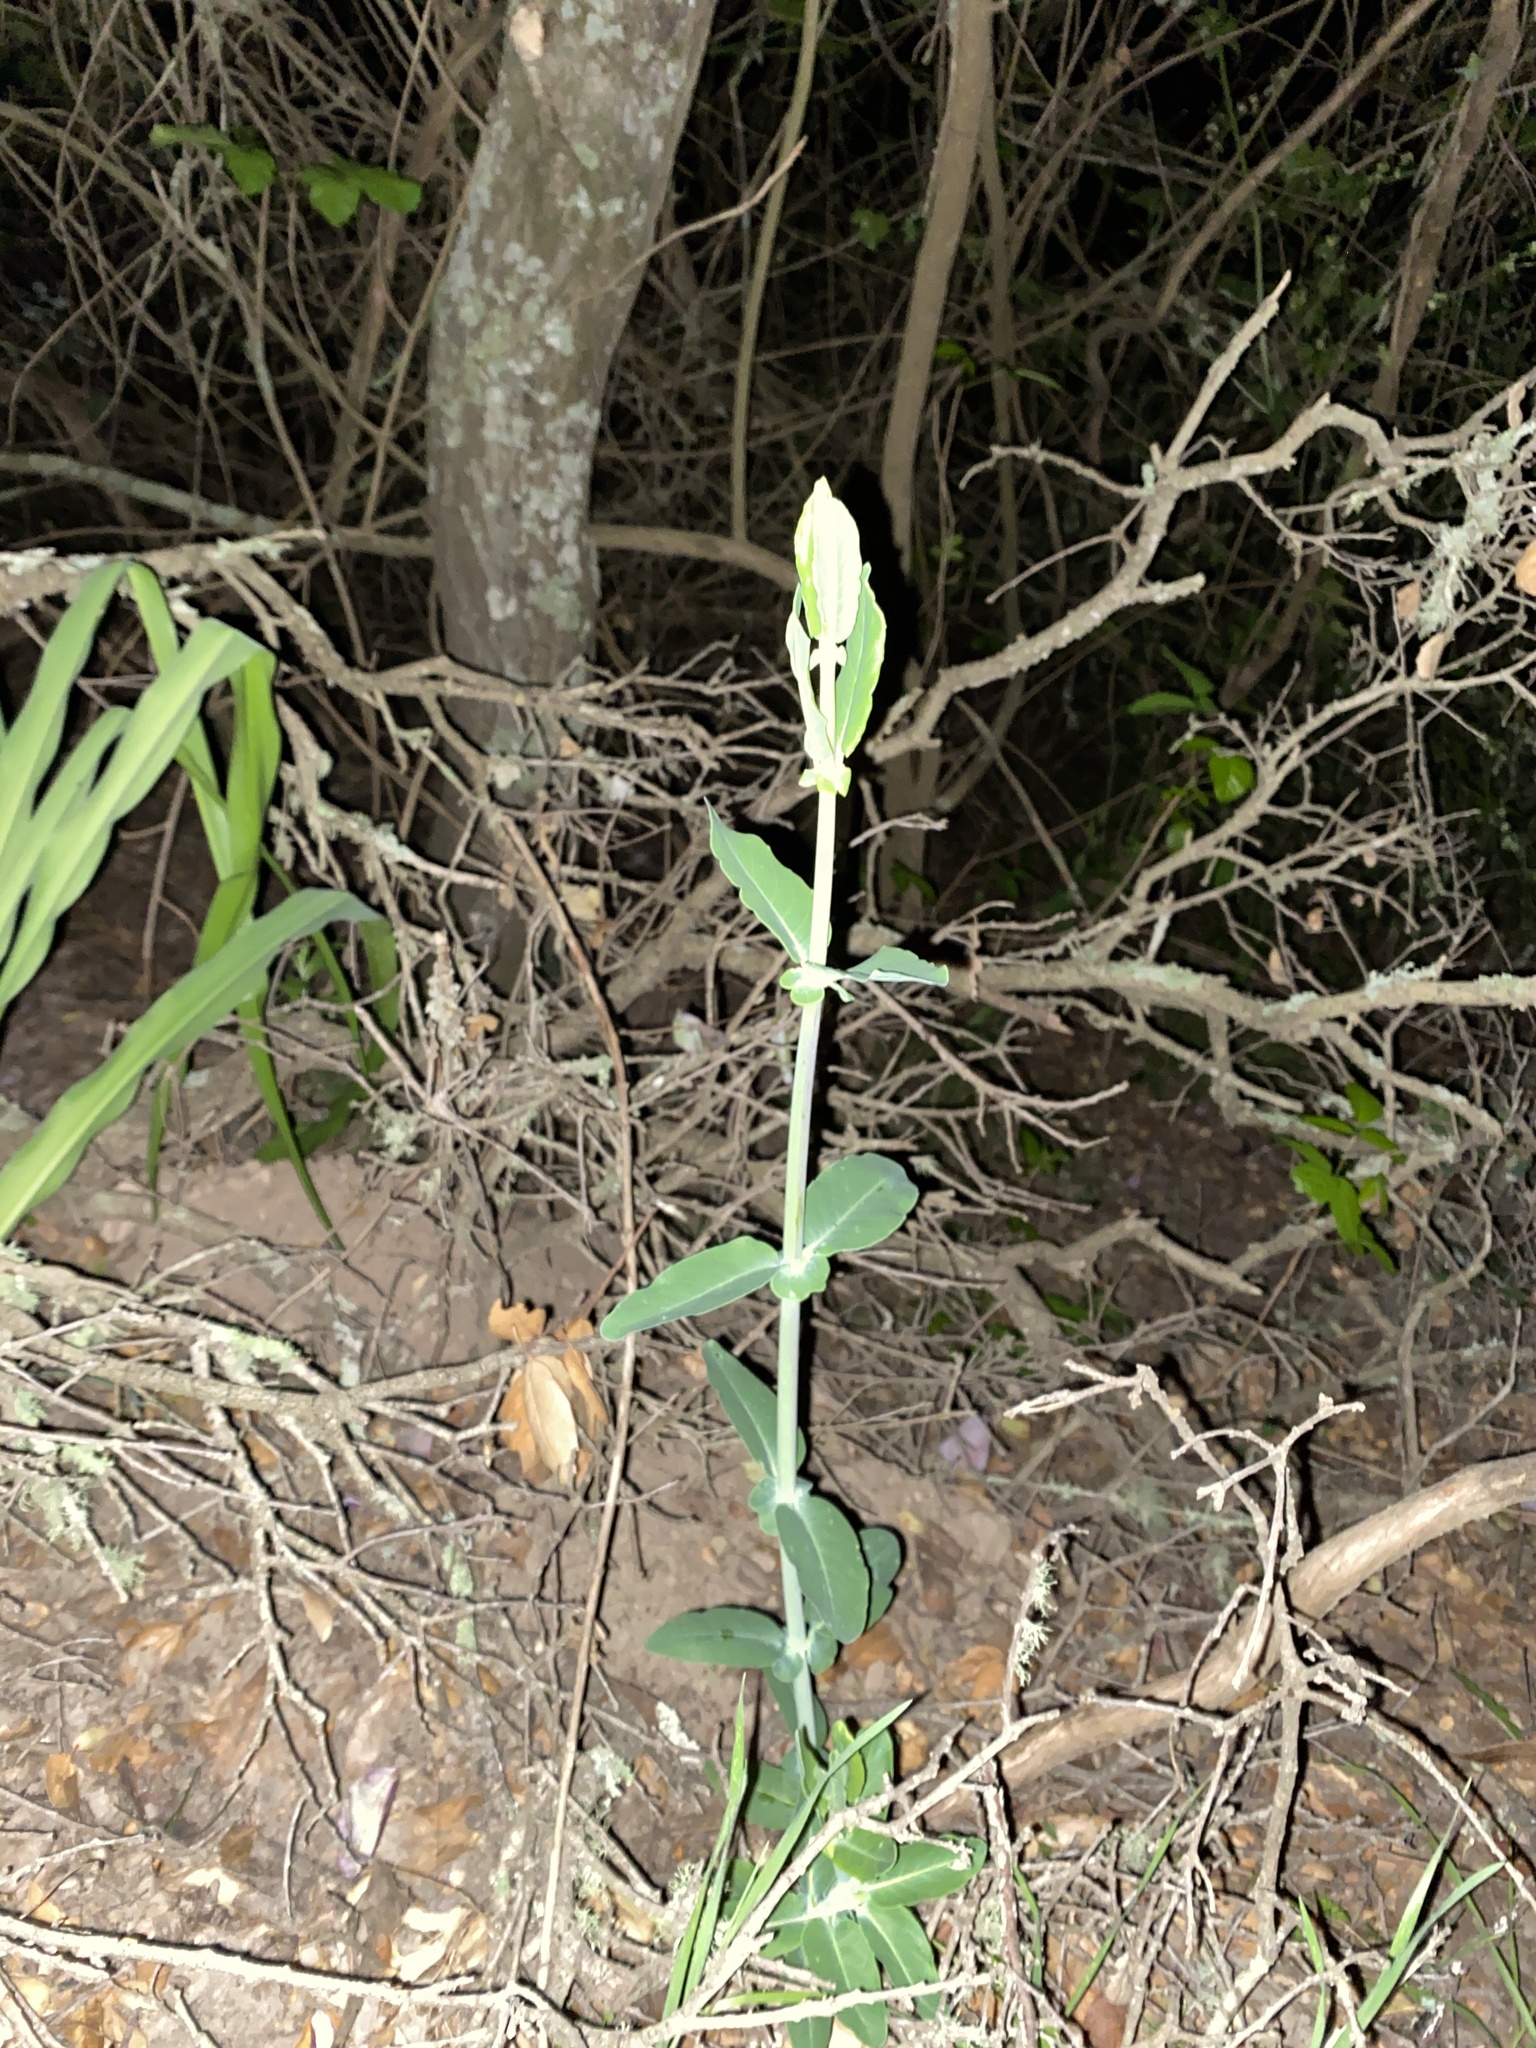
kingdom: Plantae
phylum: Tracheophyta
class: Magnoliopsida
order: Dipsacales
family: Caprifoliaceae
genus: Lonicera
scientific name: Lonicera hispidula
